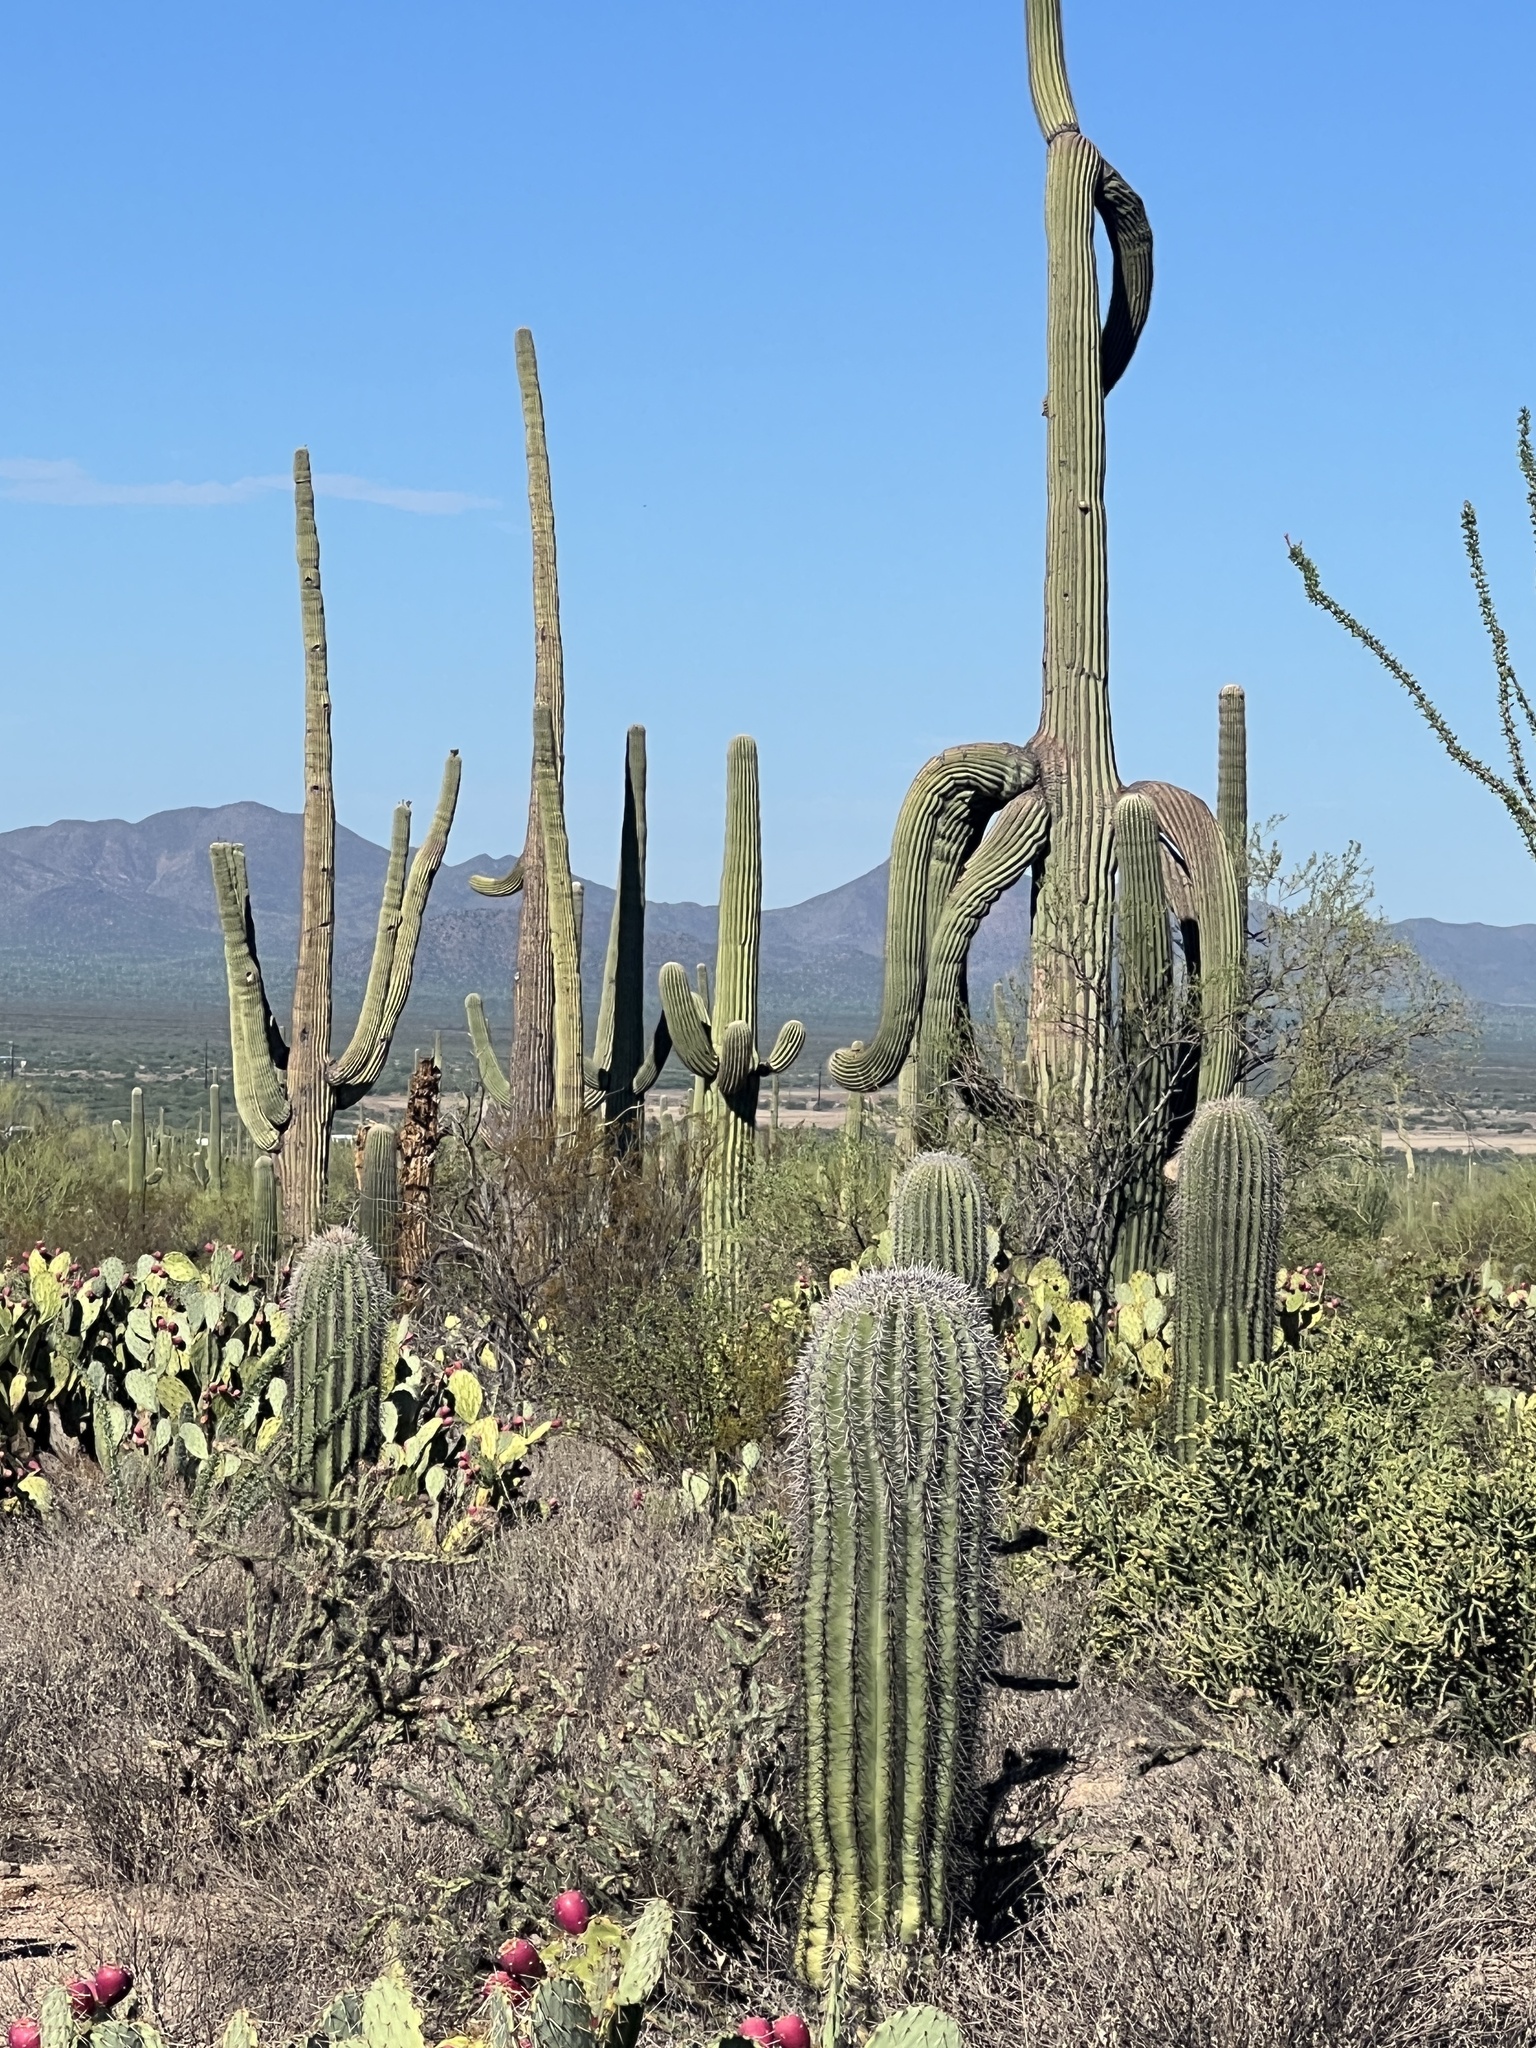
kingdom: Plantae
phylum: Tracheophyta
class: Magnoliopsida
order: Caryophyllales
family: Cactaceae
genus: Carnegiea
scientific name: Carnegiea gigantea
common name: Saguaro
